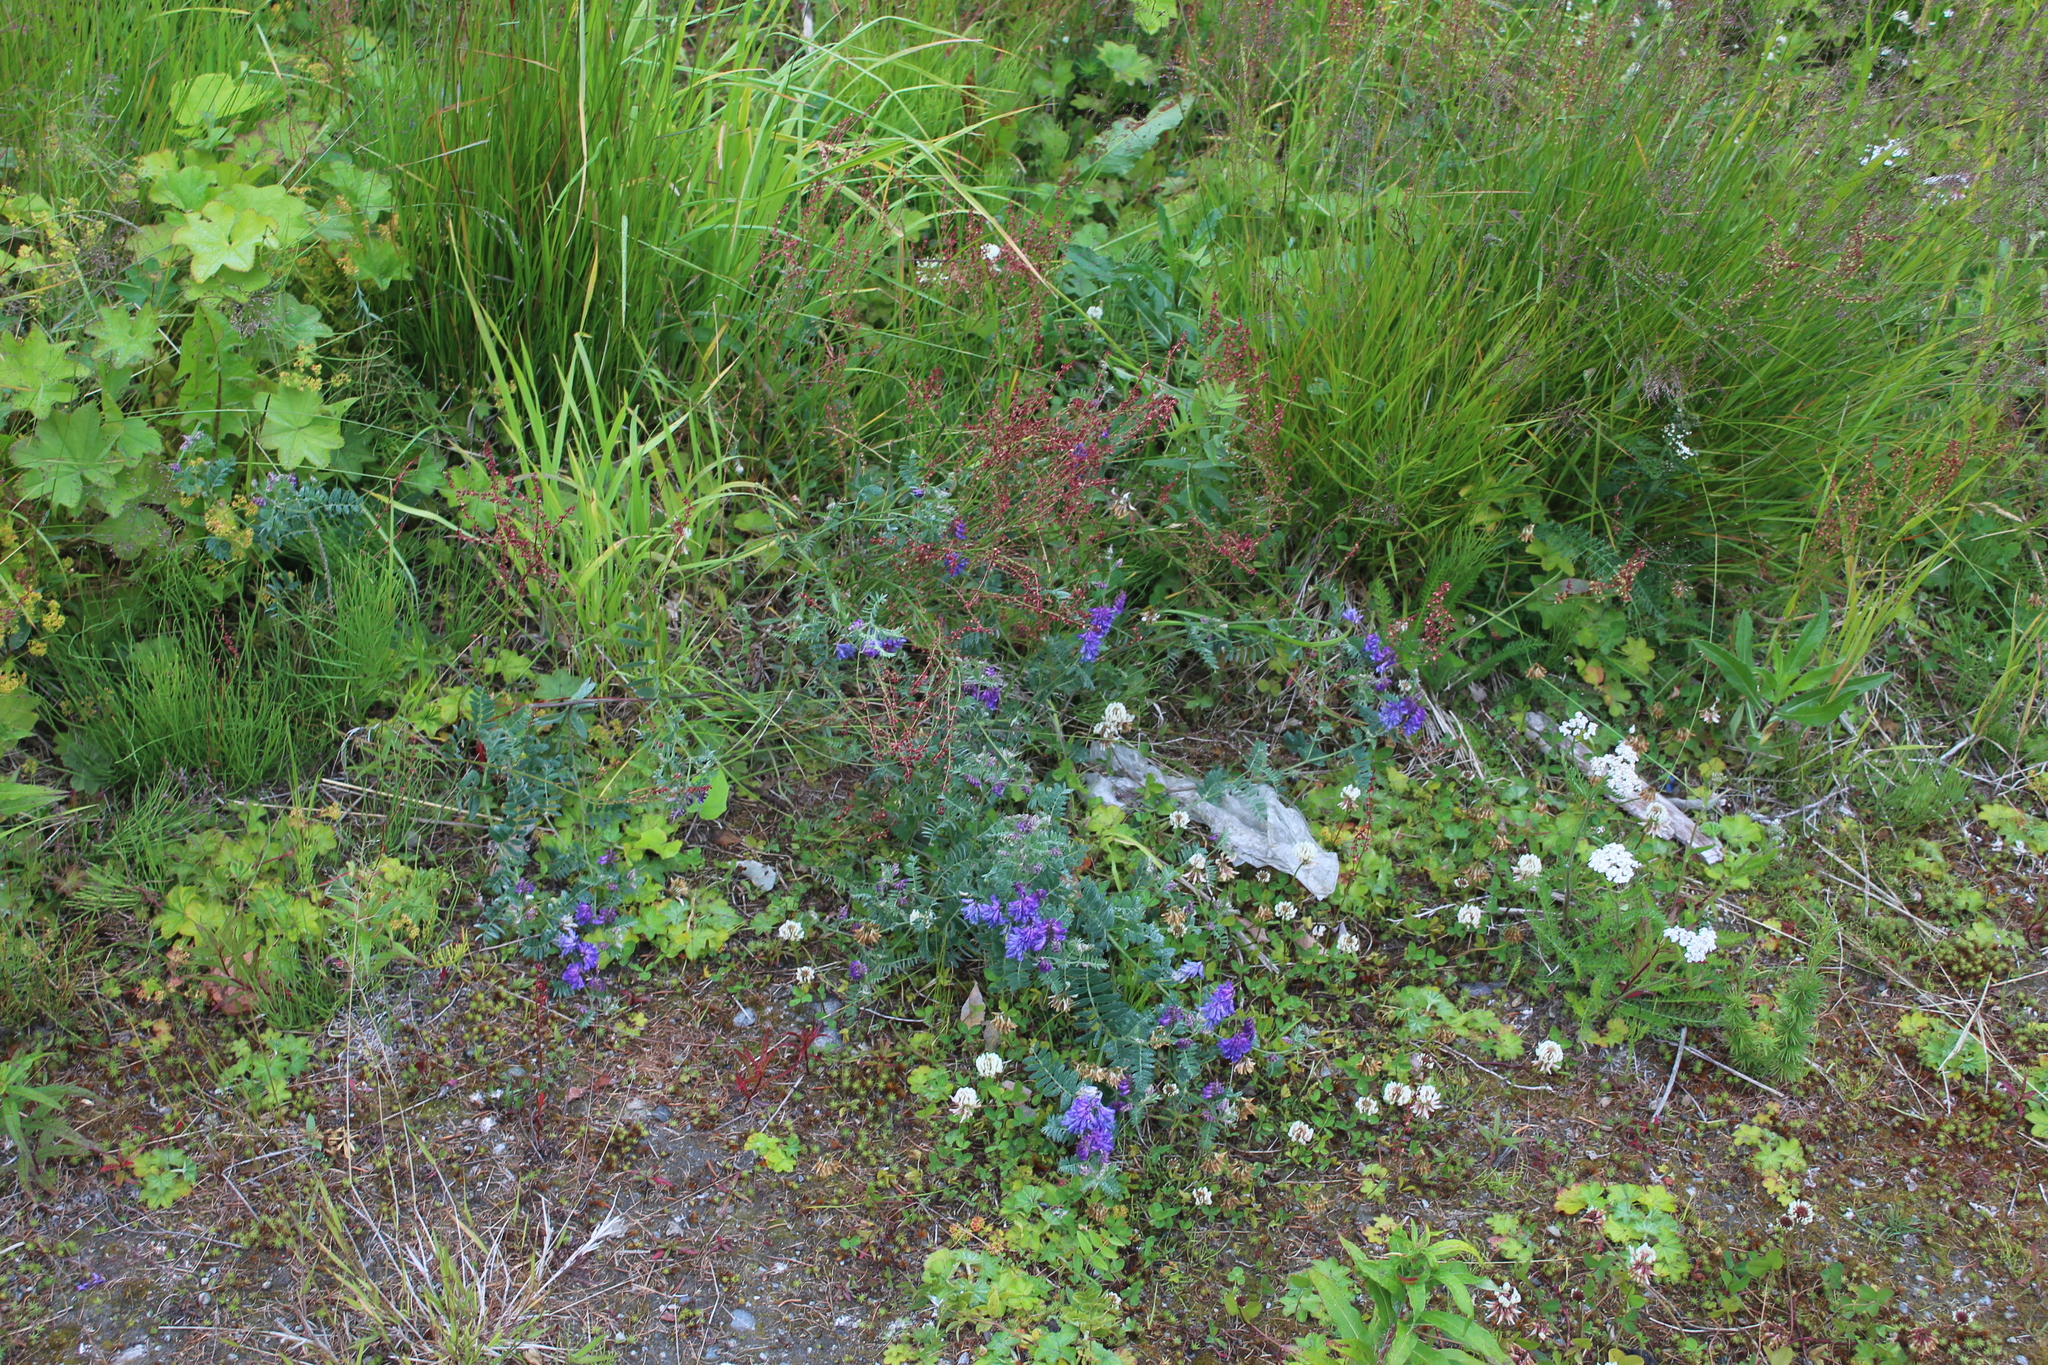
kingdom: Plantae
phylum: Tracheophyta
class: Magnoliopsida
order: Fabales
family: Fabaceae
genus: Vicia
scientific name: Vicia cracca
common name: Bird vetch
